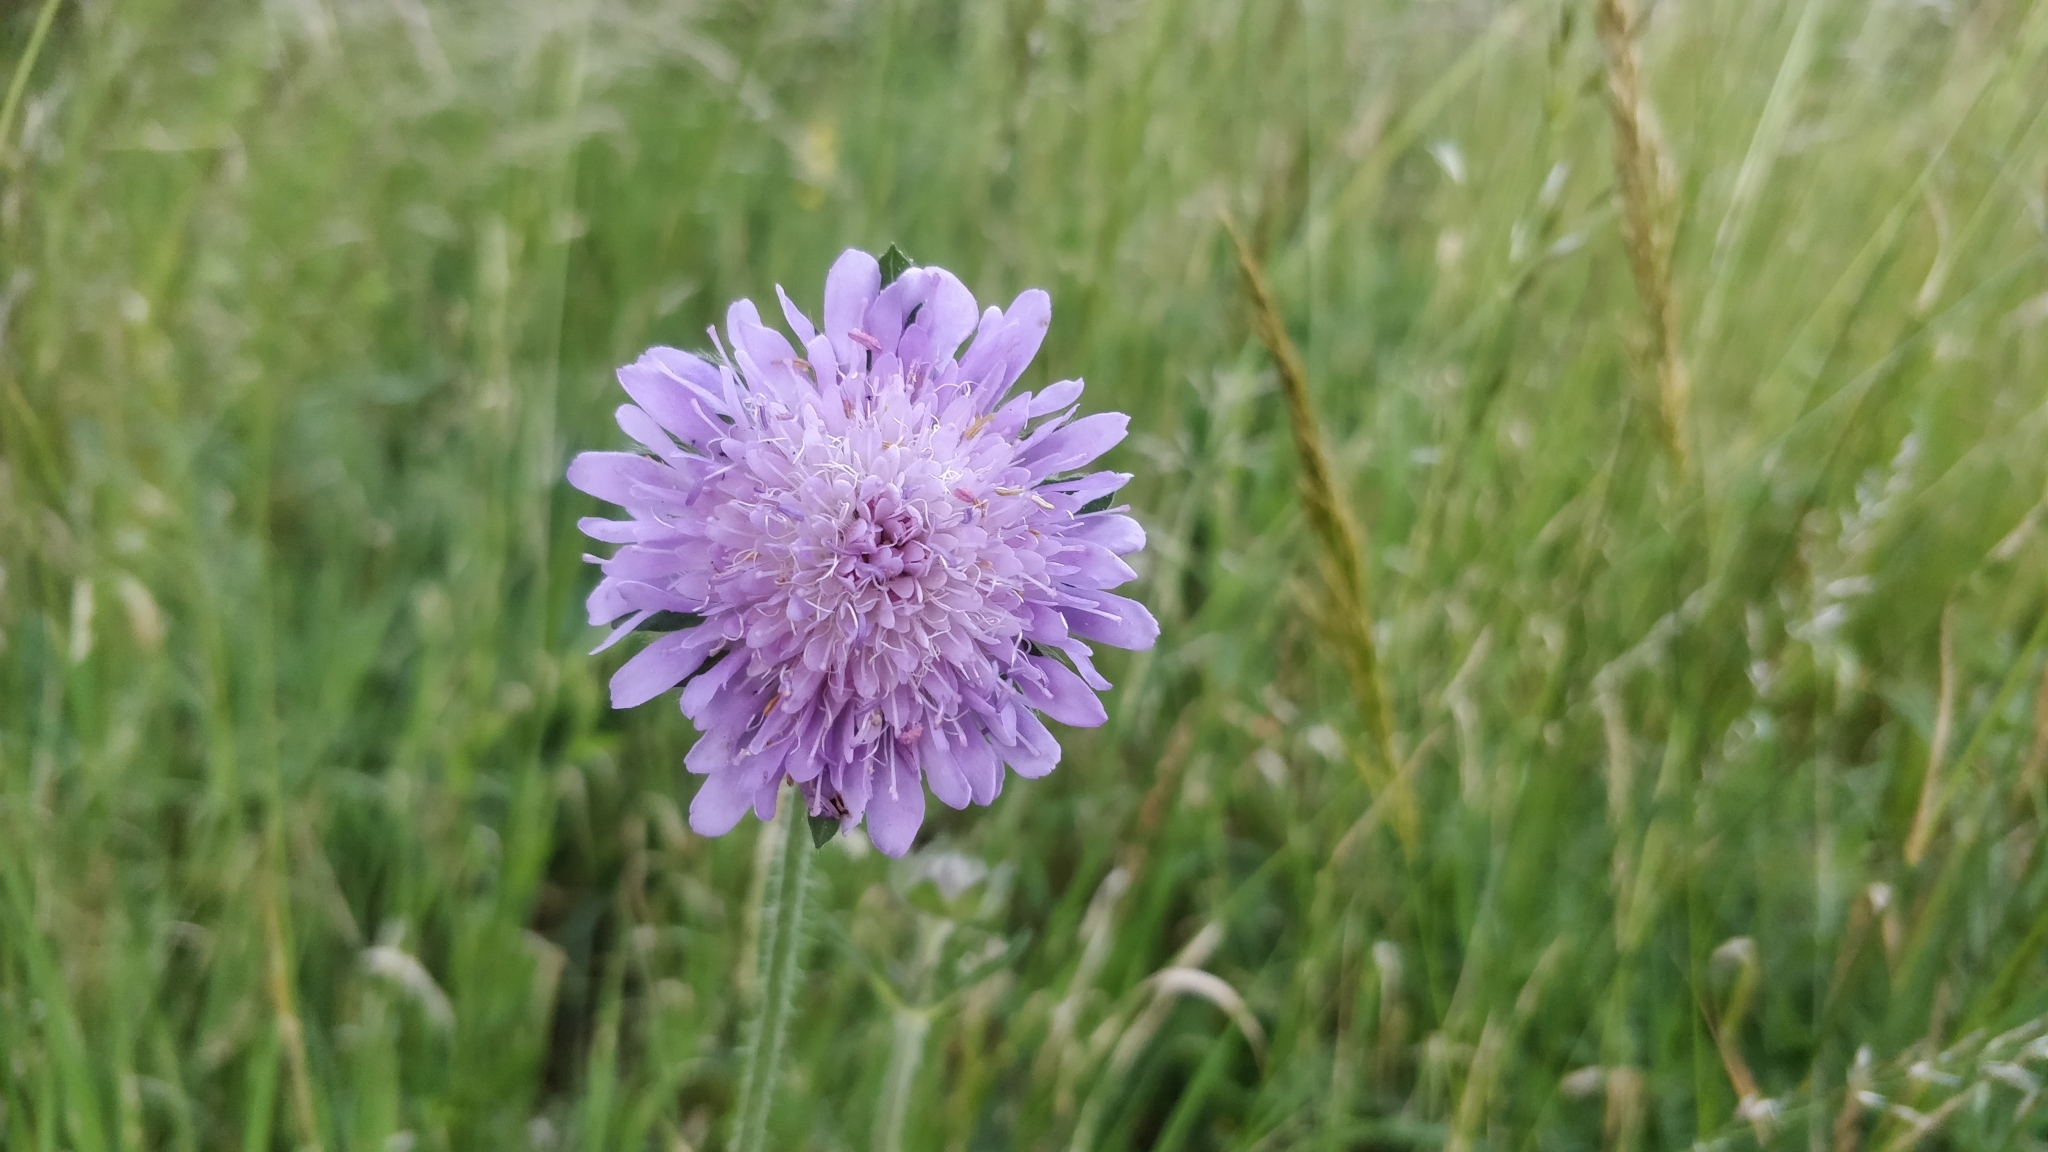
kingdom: Plantae
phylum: Tracheophyta
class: Magnoliopsida
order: Dipsacales
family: Caprifoliaceae
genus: Knautia
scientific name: Knautia arvensis
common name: Field scabiosa
